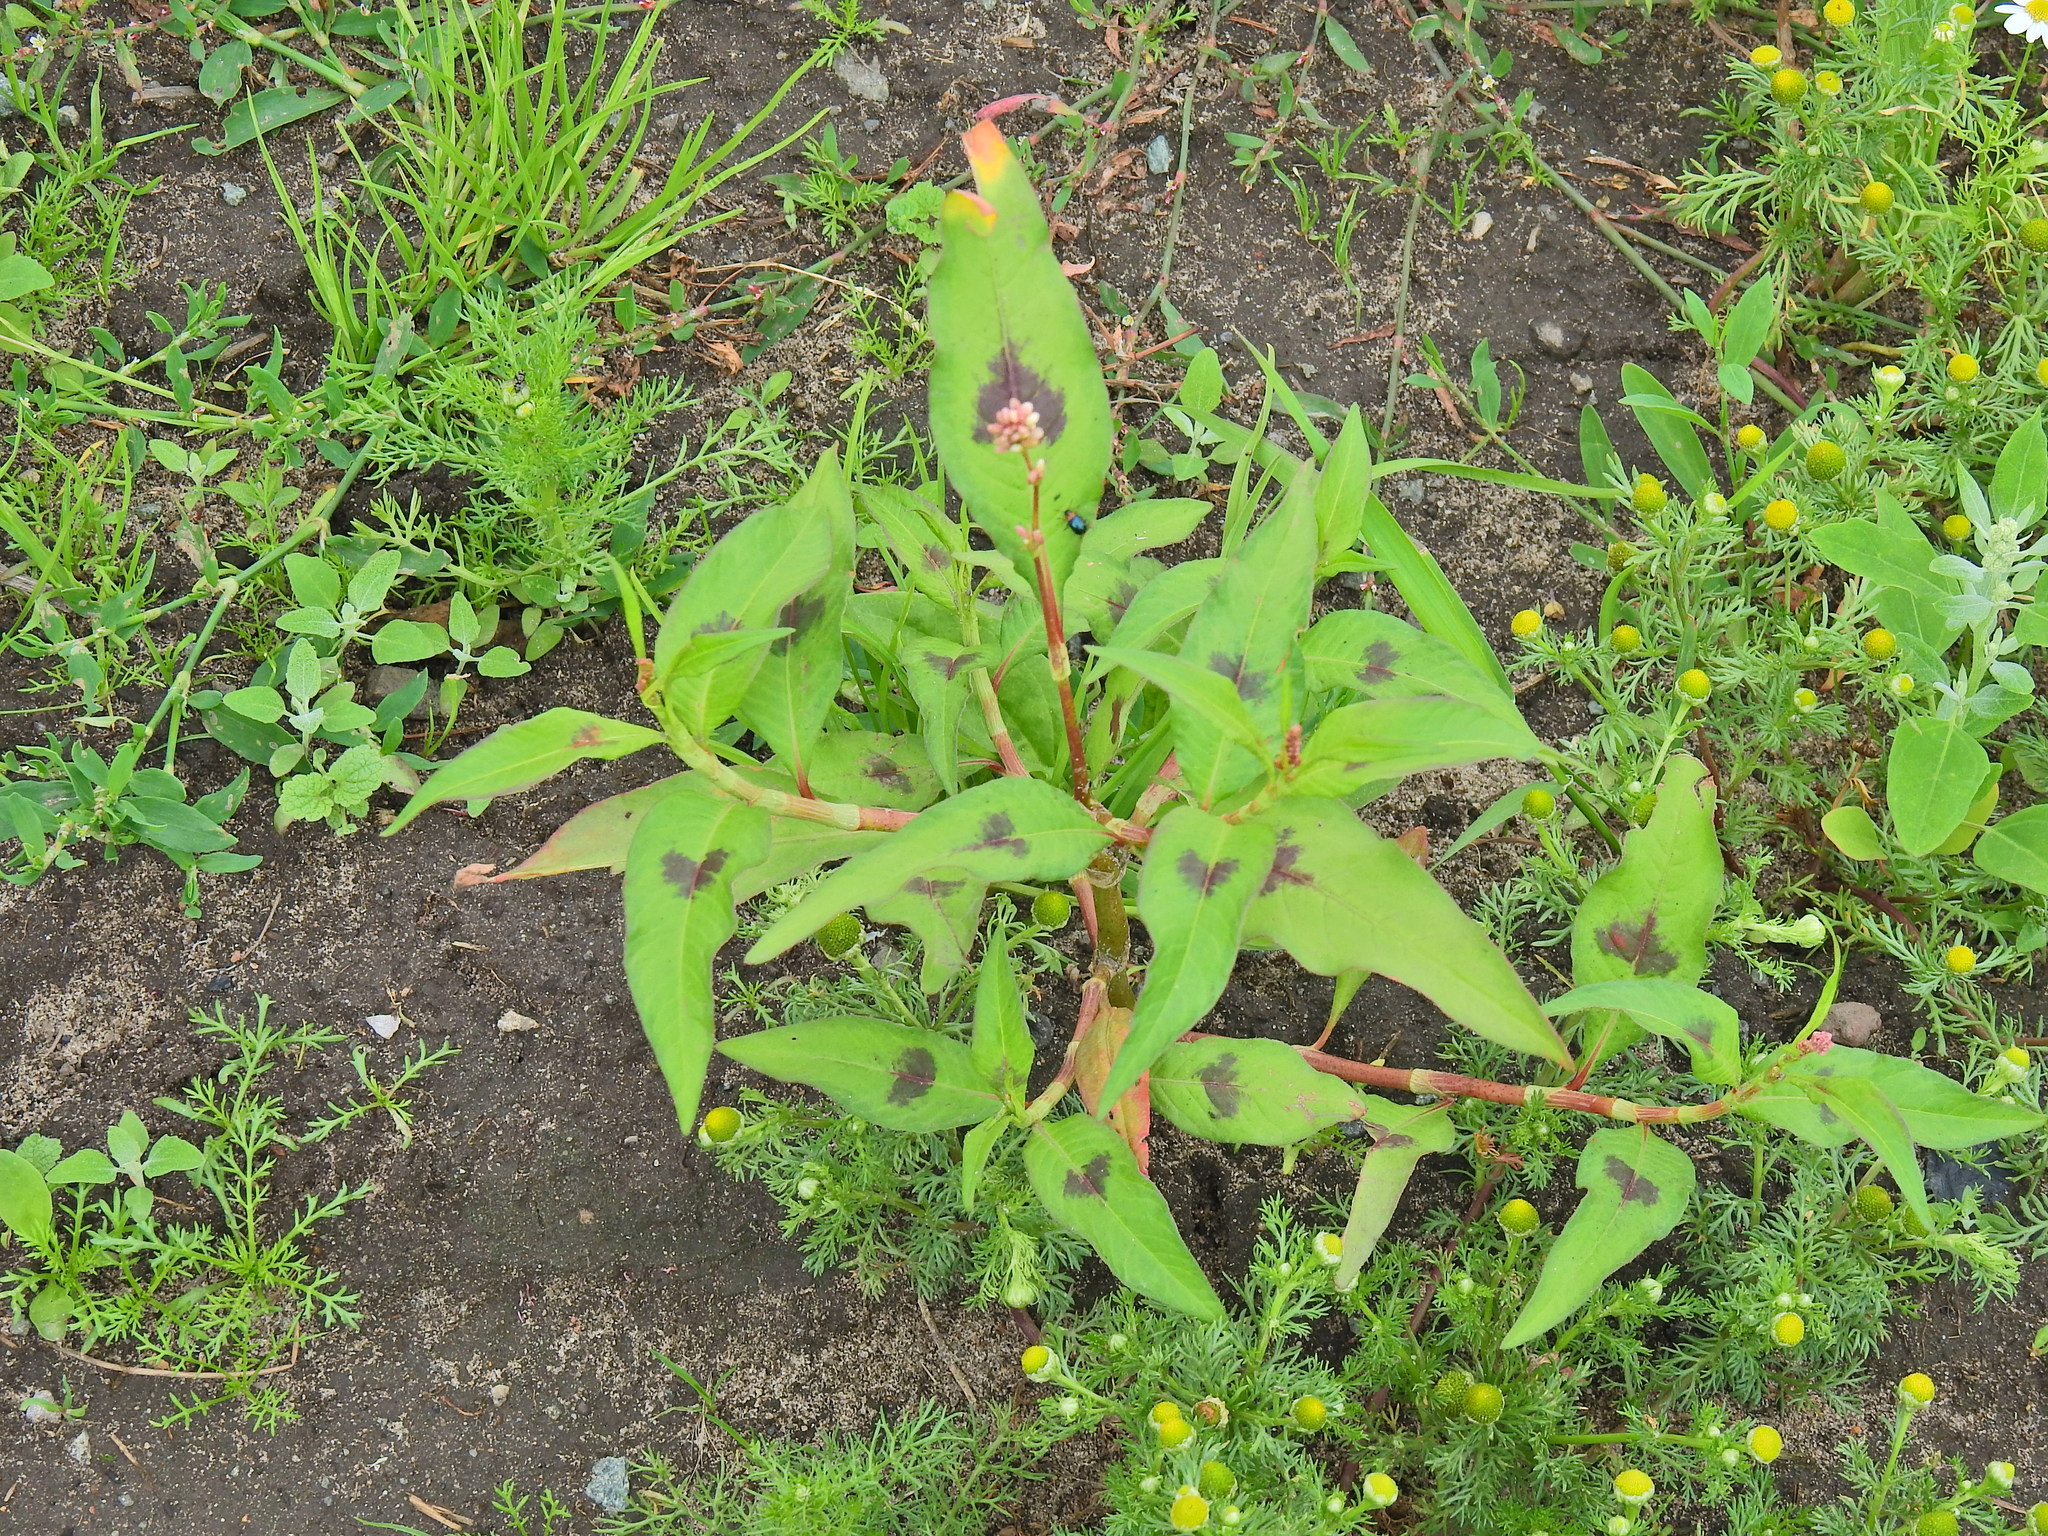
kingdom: Plantae
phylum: Tracheophyta
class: Magnoliopsida
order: Caryophyllales
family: Polygonaceae
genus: Persicaria
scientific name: Persicaria maculosa
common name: Redshank
